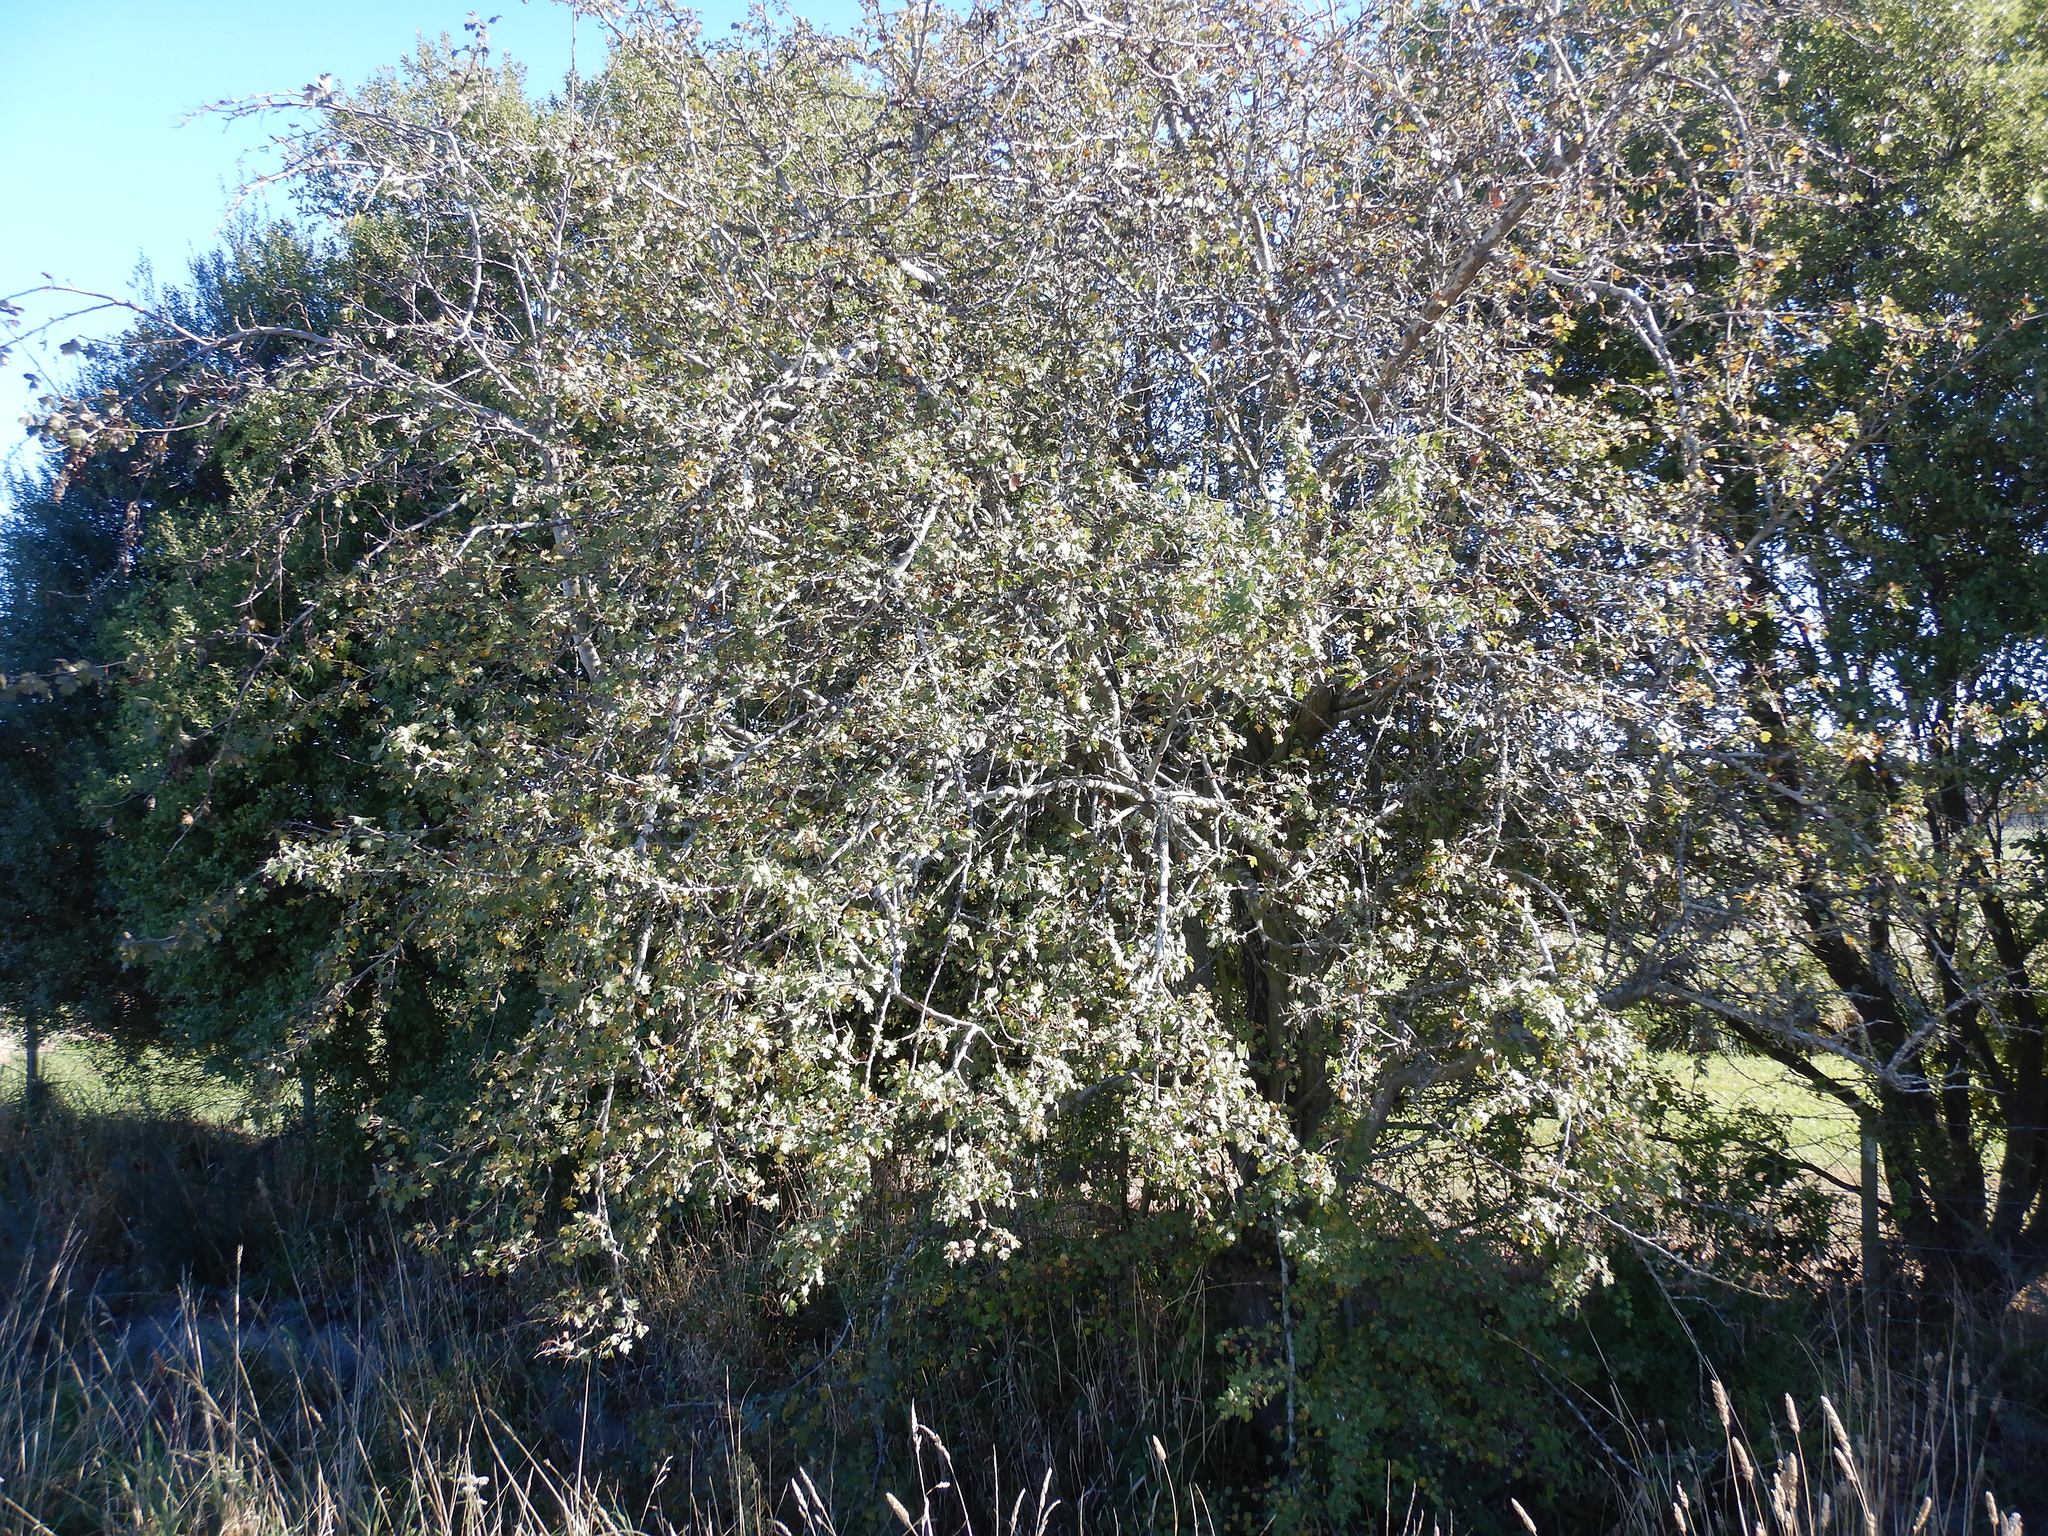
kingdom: Plantae
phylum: Tracheophyta
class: Magnoliopsida
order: Rosales
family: Rosaceae
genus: Crataegus
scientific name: Crataegus monogyna
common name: Hawthorn
